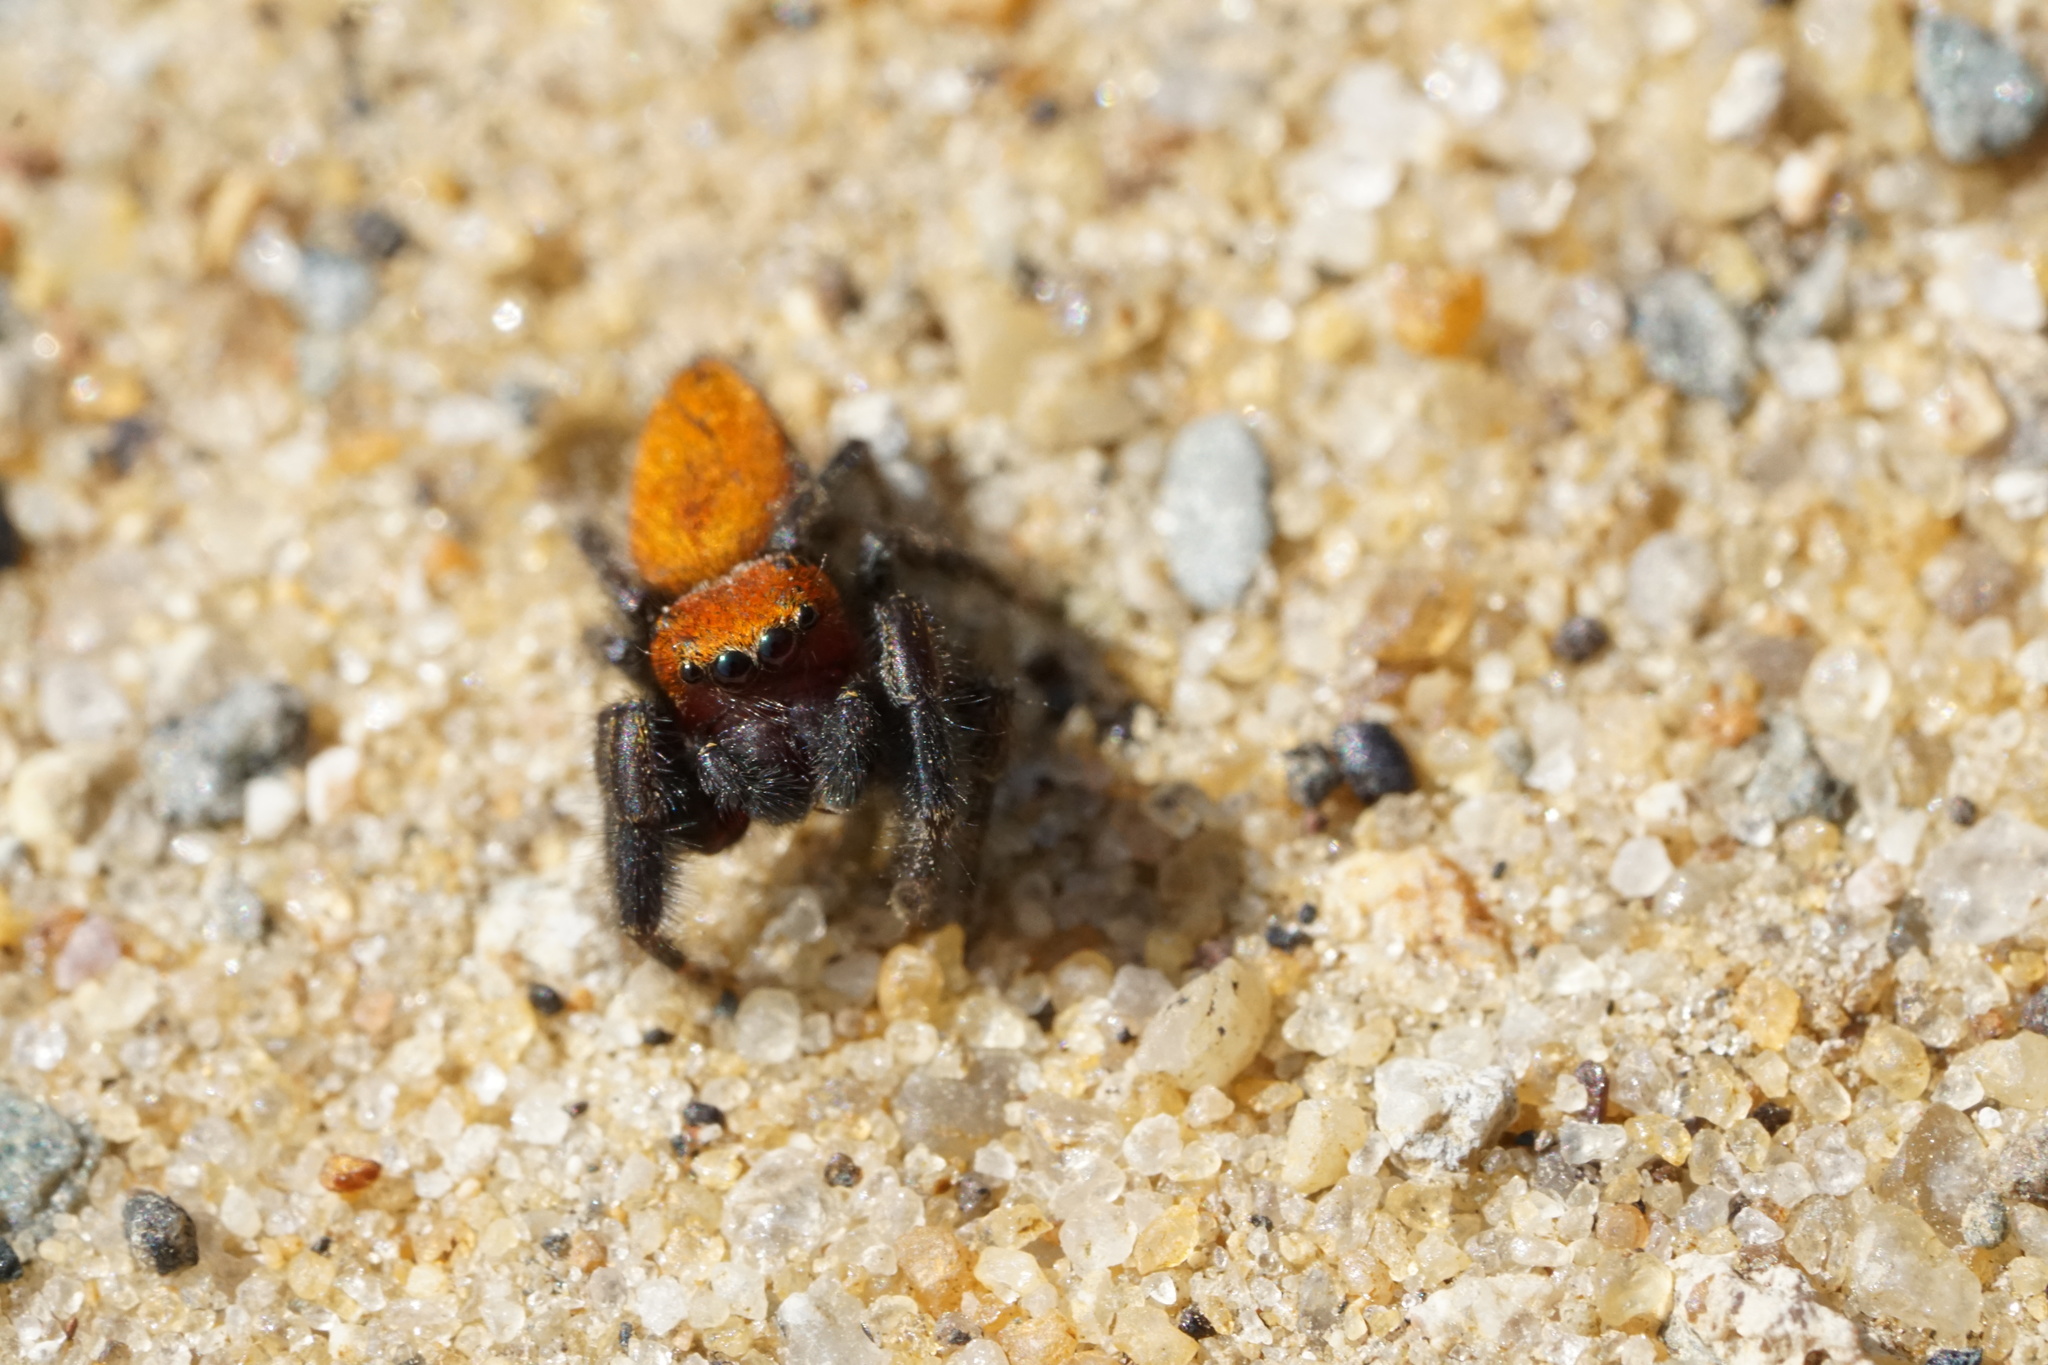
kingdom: Animalia
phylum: Arthropoda
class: Arachnida
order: Araneae
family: Salticidae
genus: Phidippus
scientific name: Phidippus cardinalis
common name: Cardinal jumper
